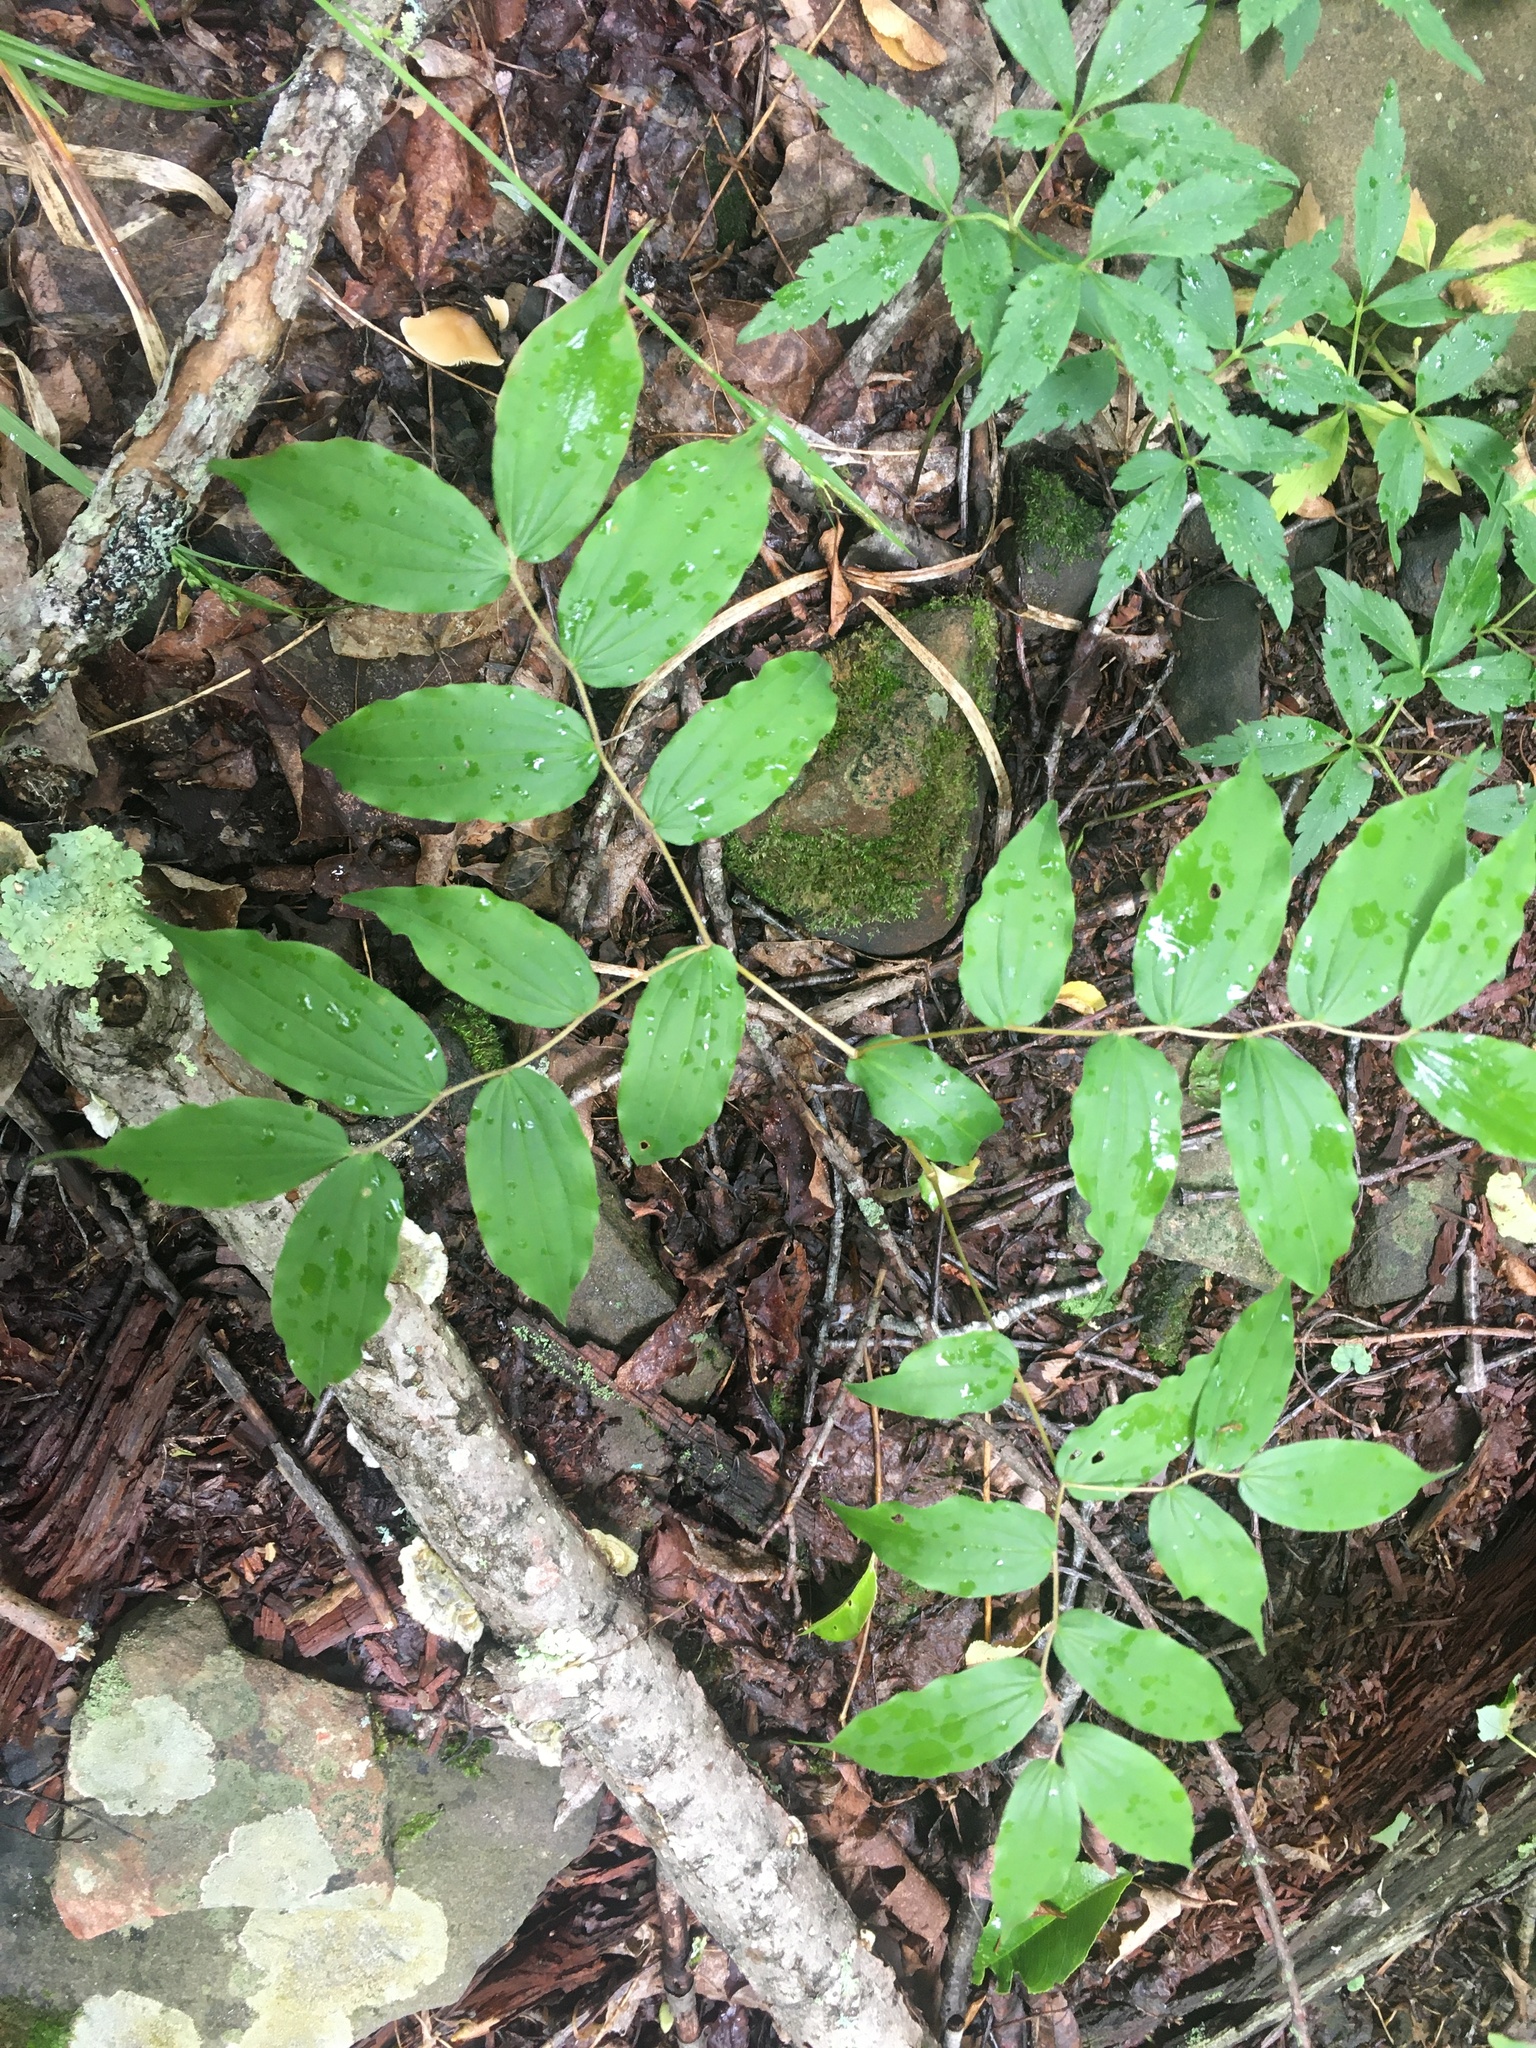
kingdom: Plantae
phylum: Tracheophyta
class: Liliopsida
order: Liliales
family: Liliaceae
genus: Prosartes
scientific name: Prosartes lanuginosa
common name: Hairy mandarin
